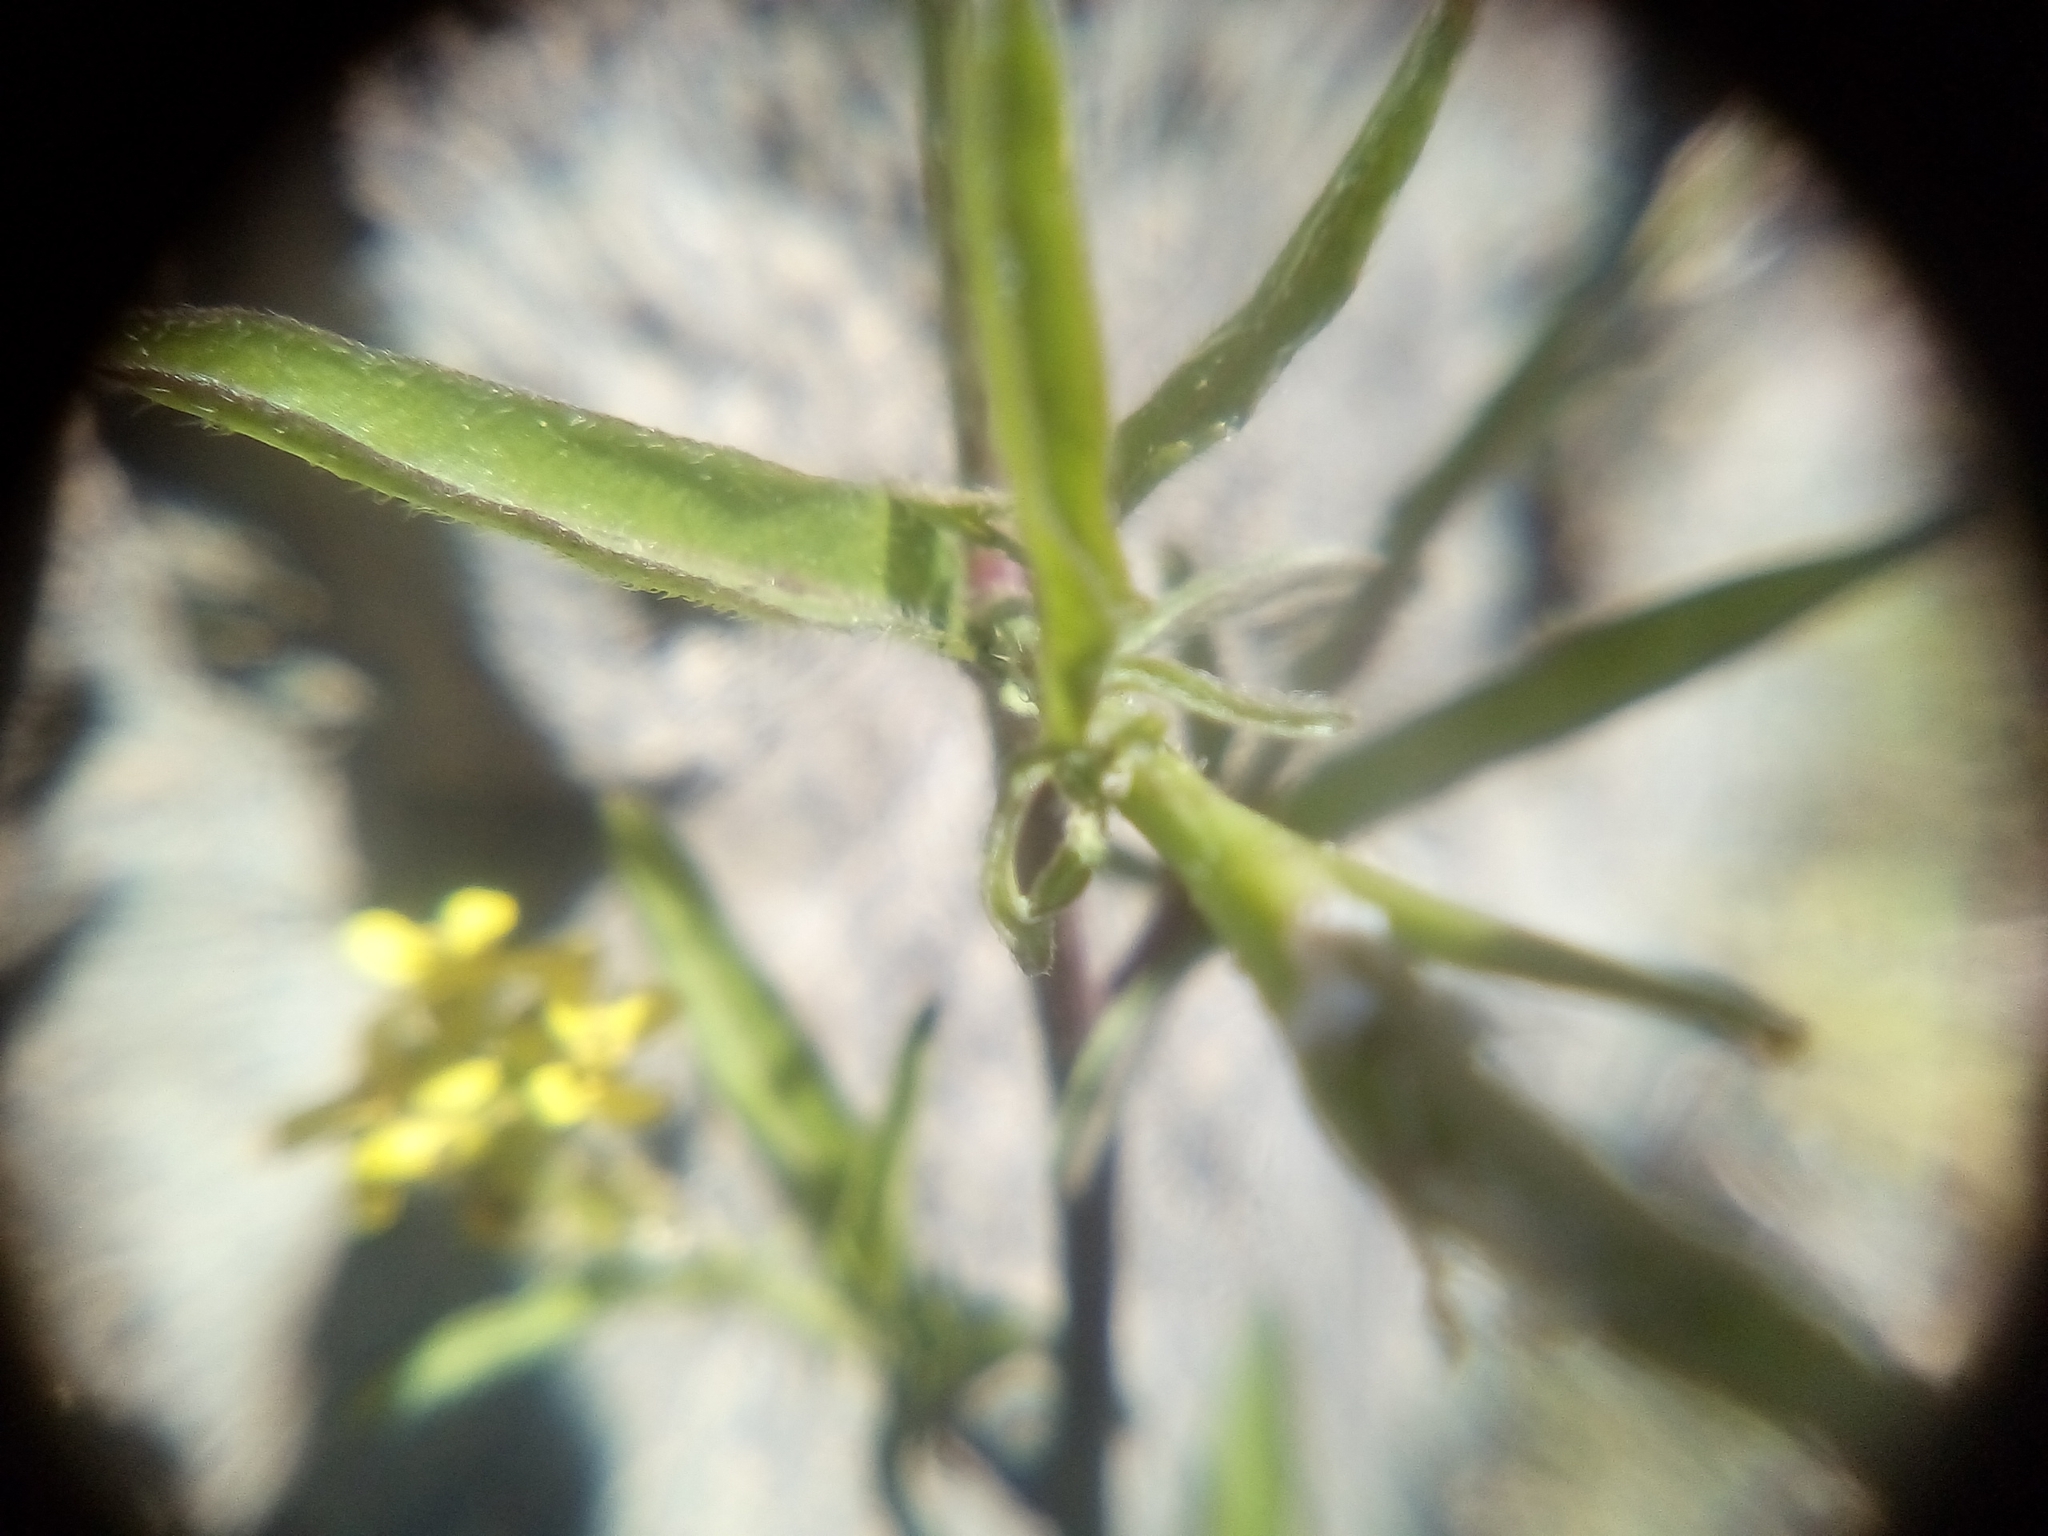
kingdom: Plantae
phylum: Tracheophyta
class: Magnoliopsida
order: Brassicales
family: Brassicaceae
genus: Sisymbrium
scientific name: Sisymbrium officinale
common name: Hedge mustard
